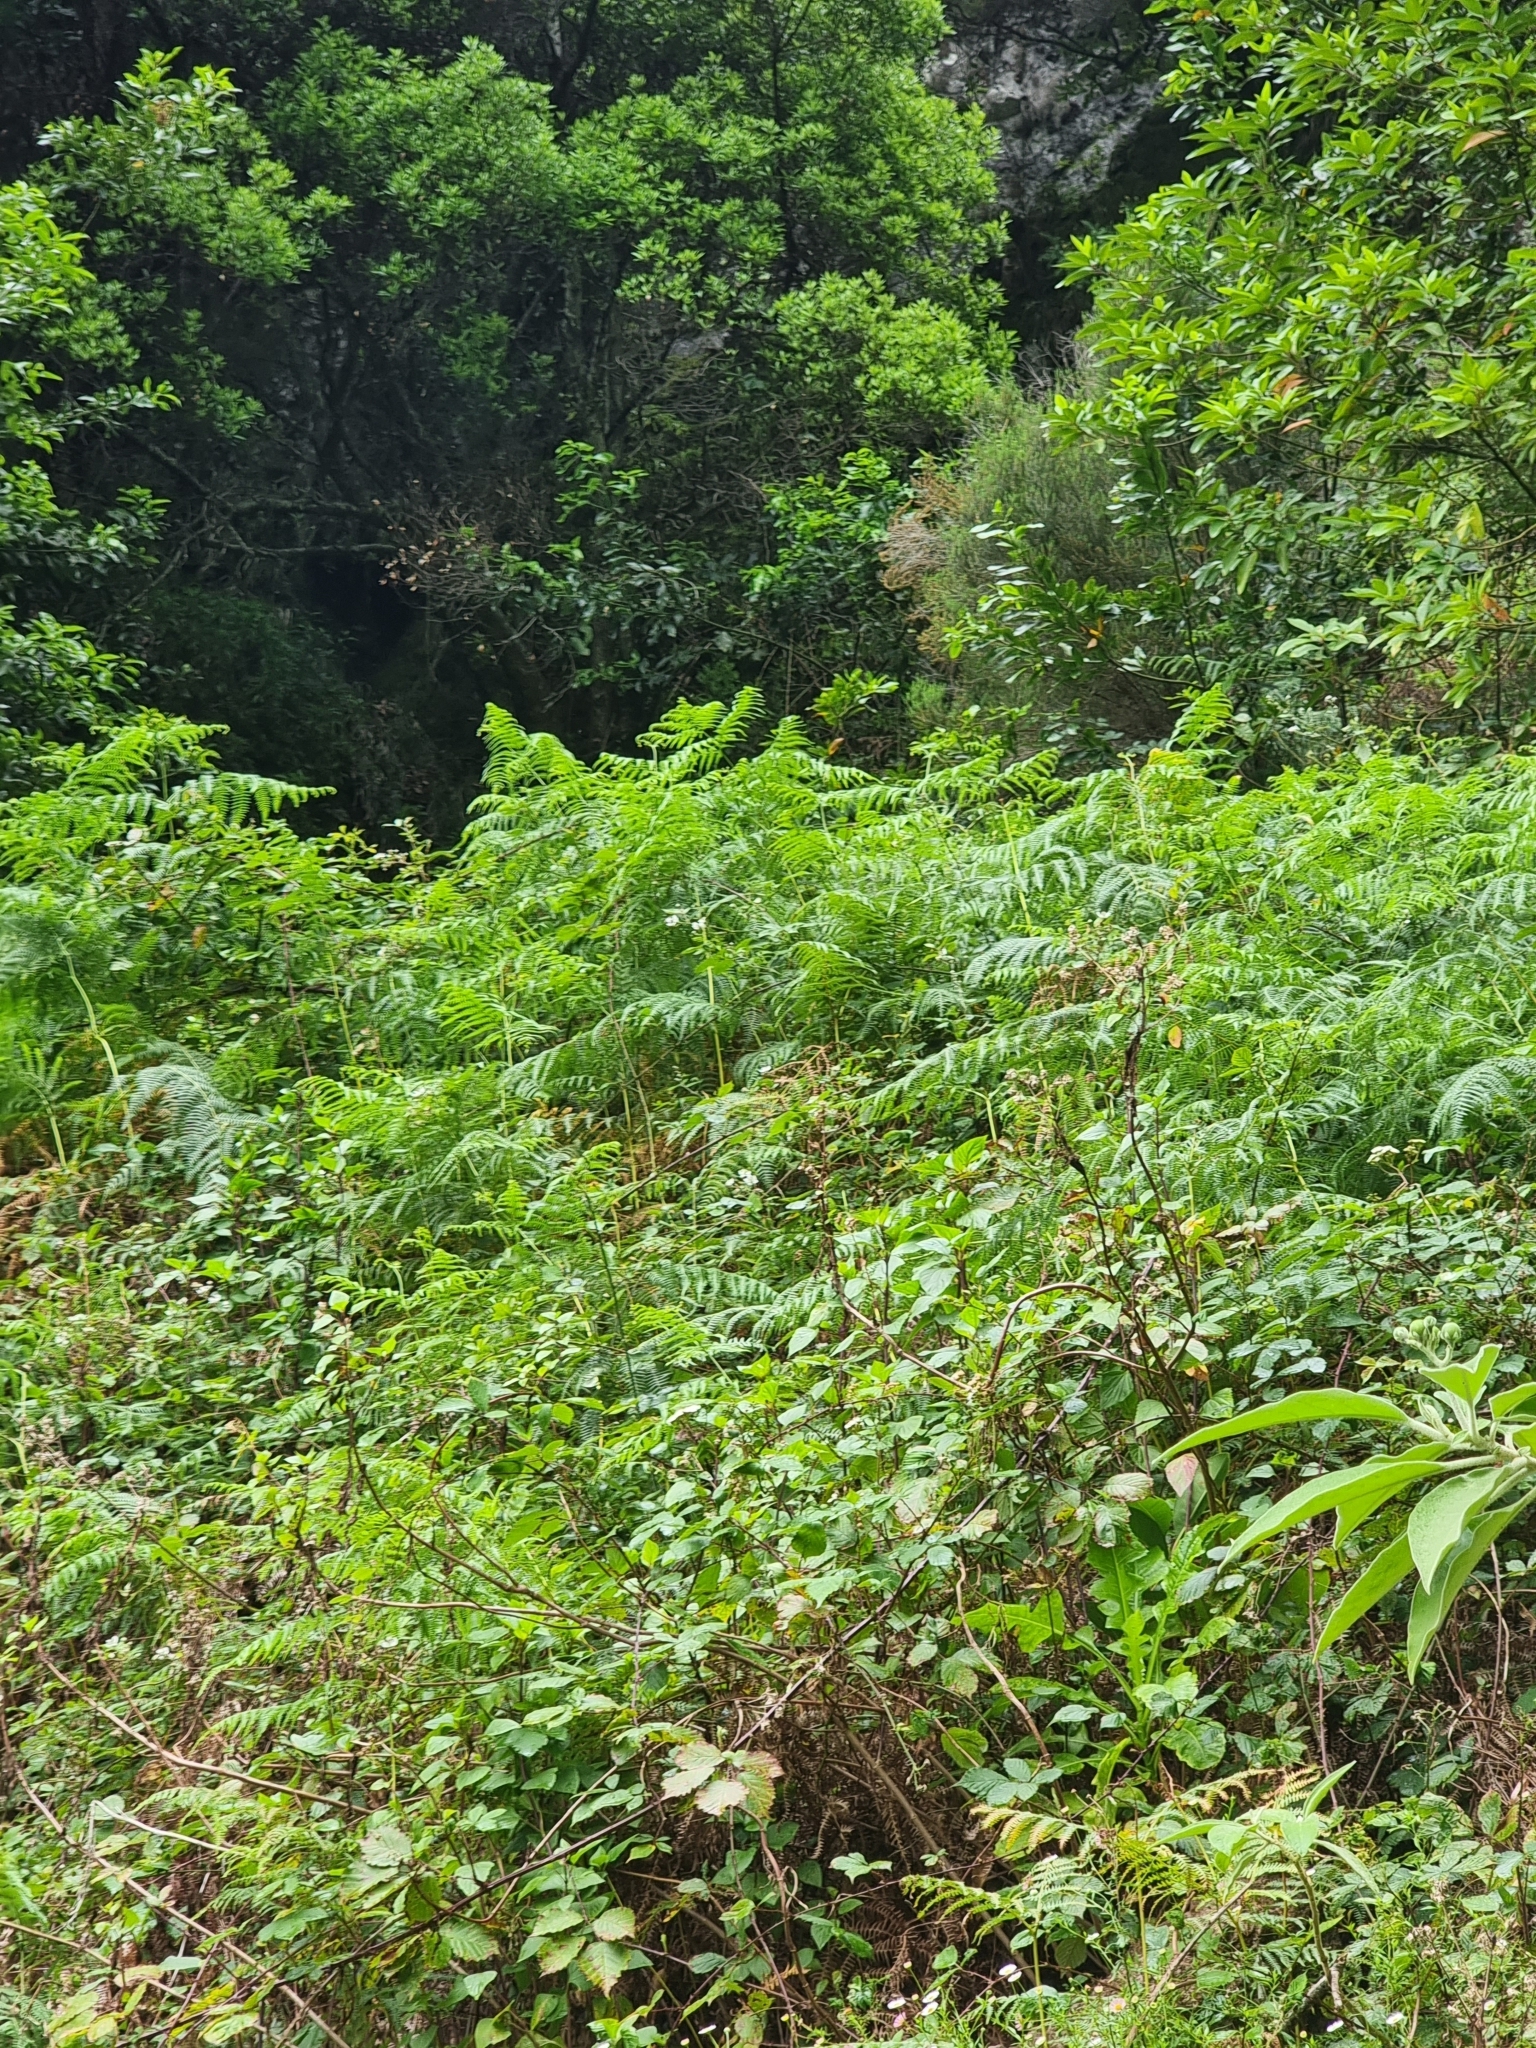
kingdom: Plantae
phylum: Tracheophyta
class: Polypodiopsida
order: Polypodiales
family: Dennstaedtiaceae
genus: Pteridium
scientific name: Pteridium aquilinum
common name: Bracken
